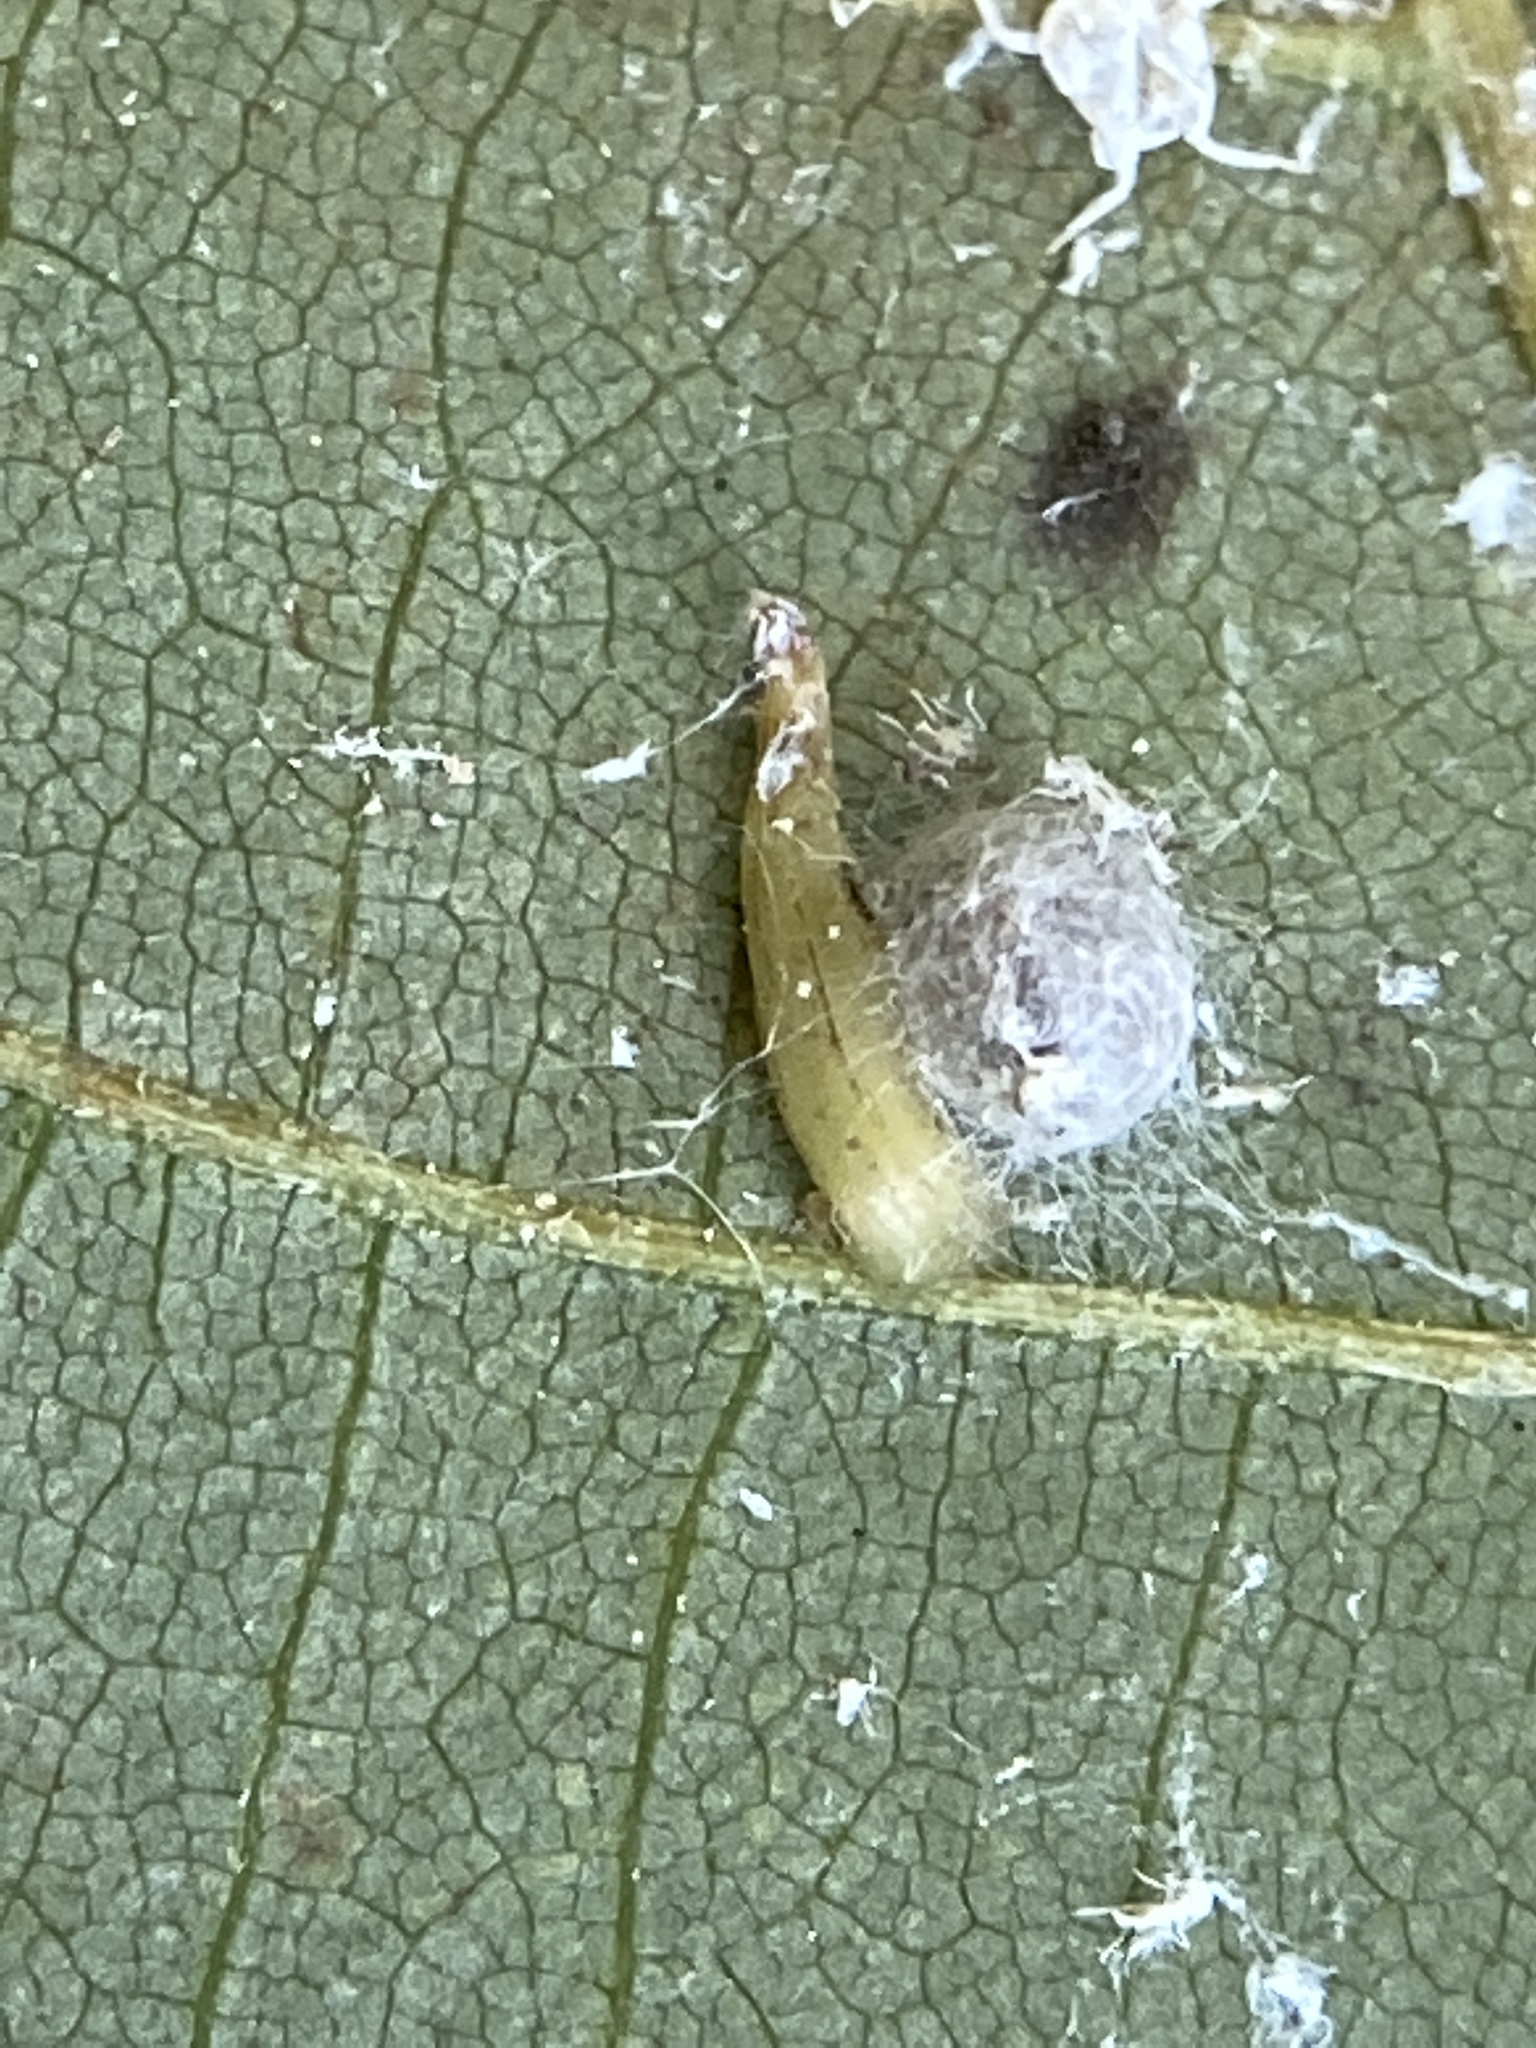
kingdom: Animalia
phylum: Arthropoda
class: Insecta
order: Diptera
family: Cecidomyiidae
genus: Caryomyia
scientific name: Caryomyia
